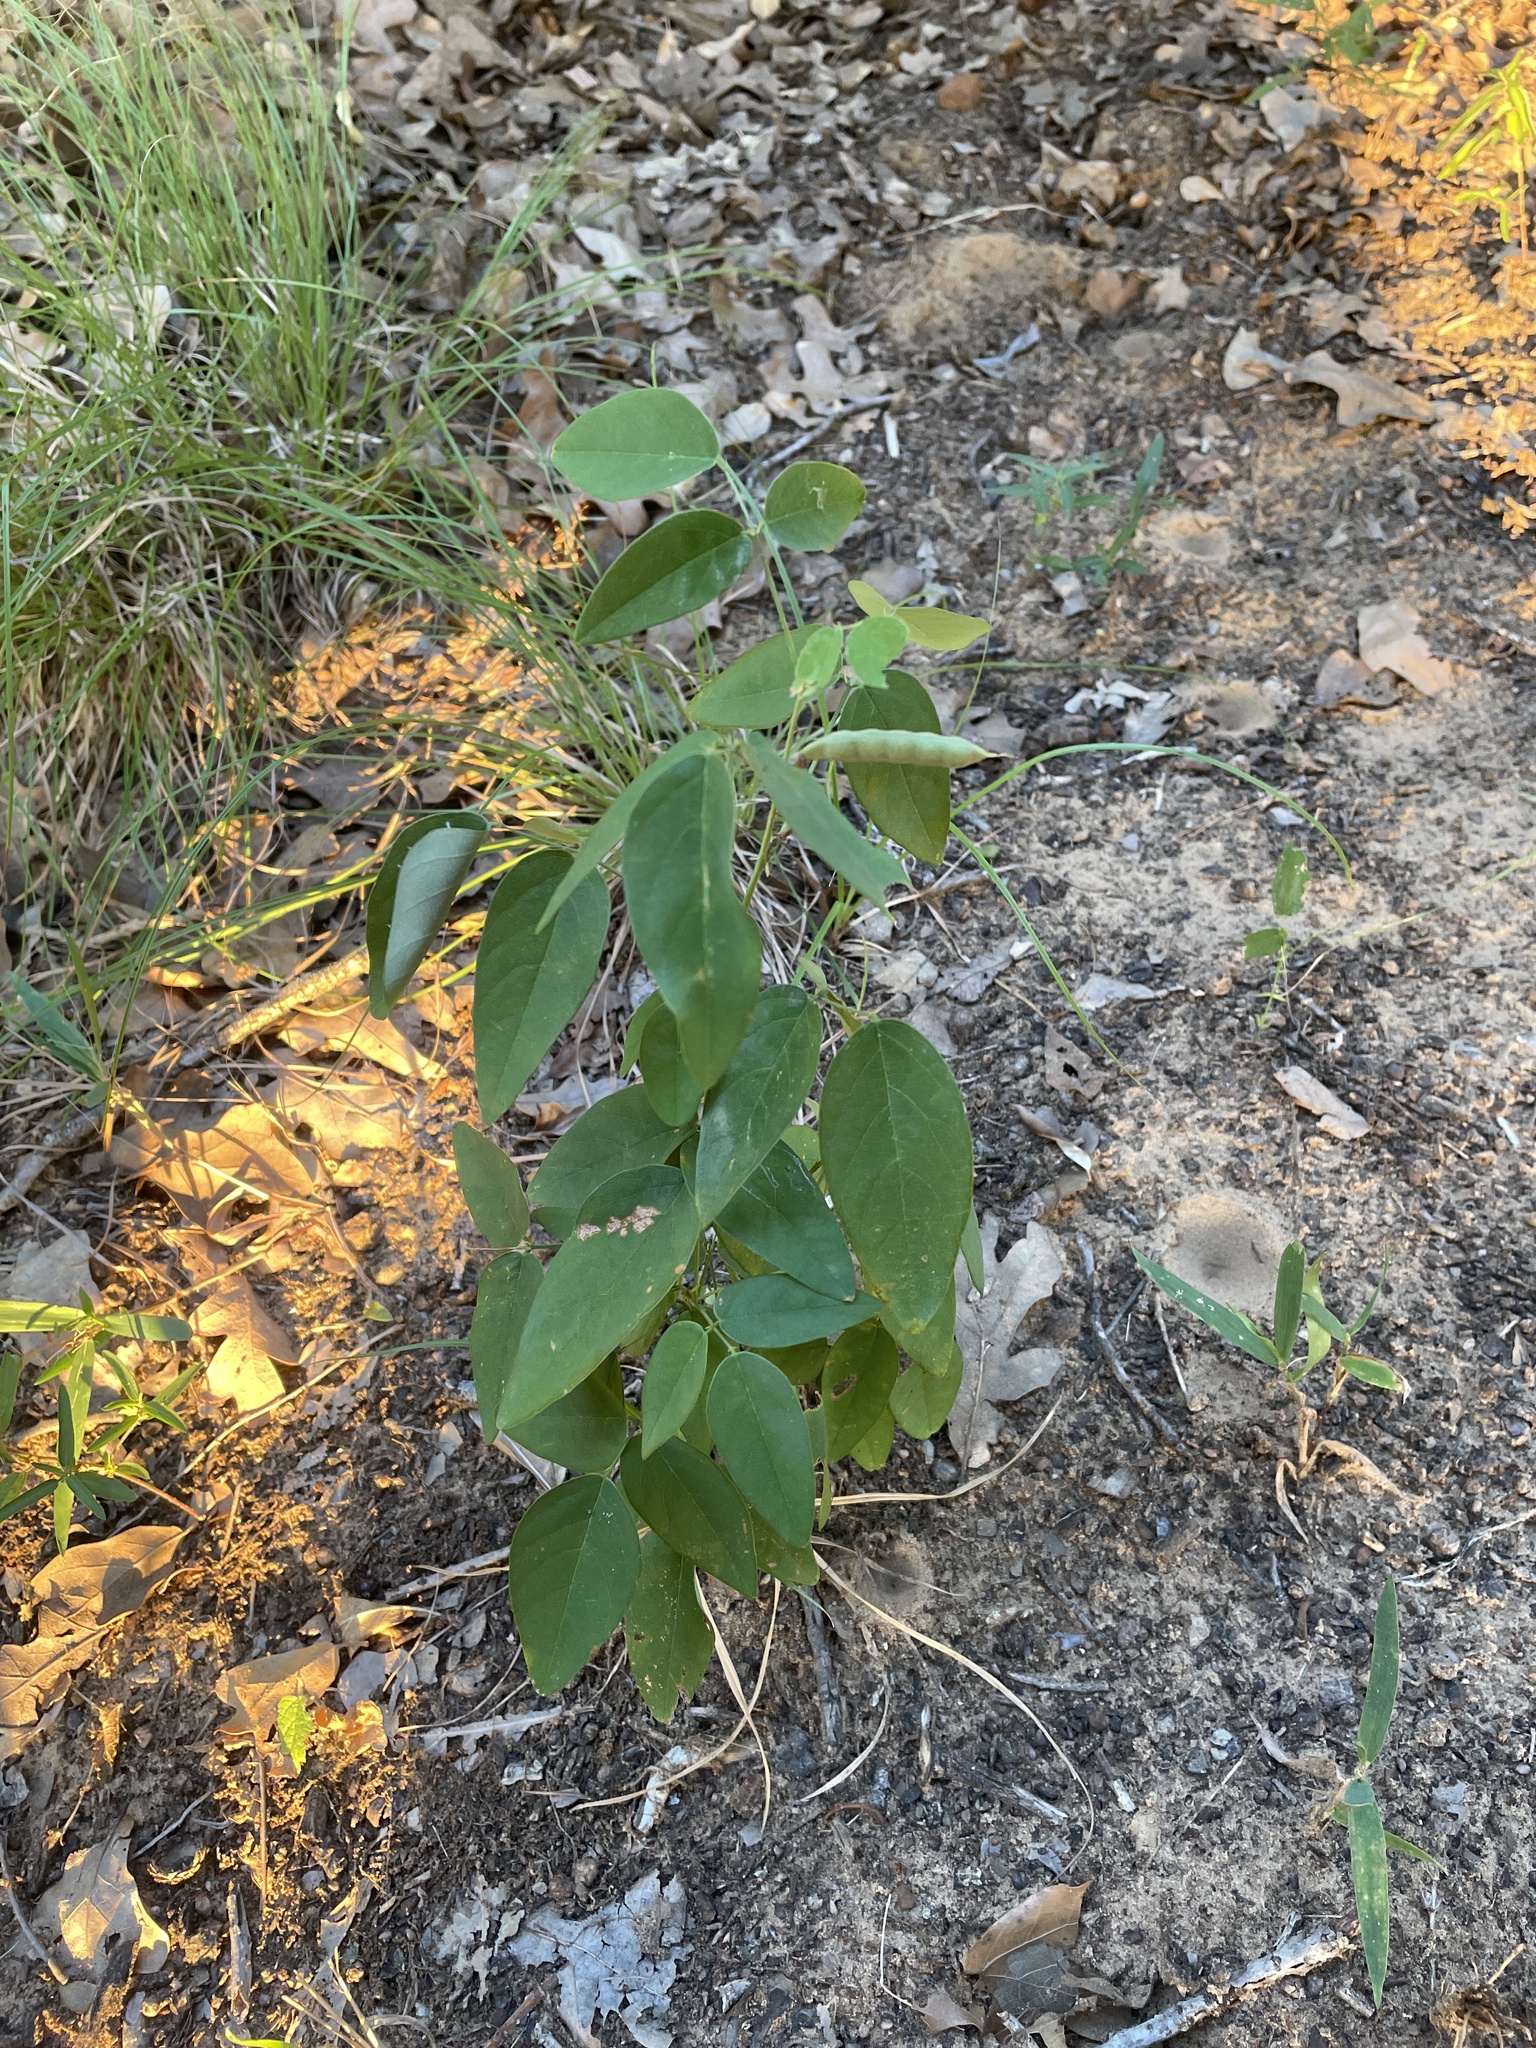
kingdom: Plantae
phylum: Tracheophyta
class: Magnoliopsida
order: Fabales
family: Fabaceae
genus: Clitoria
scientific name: Clitoria mariana
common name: Butterfly-pea
